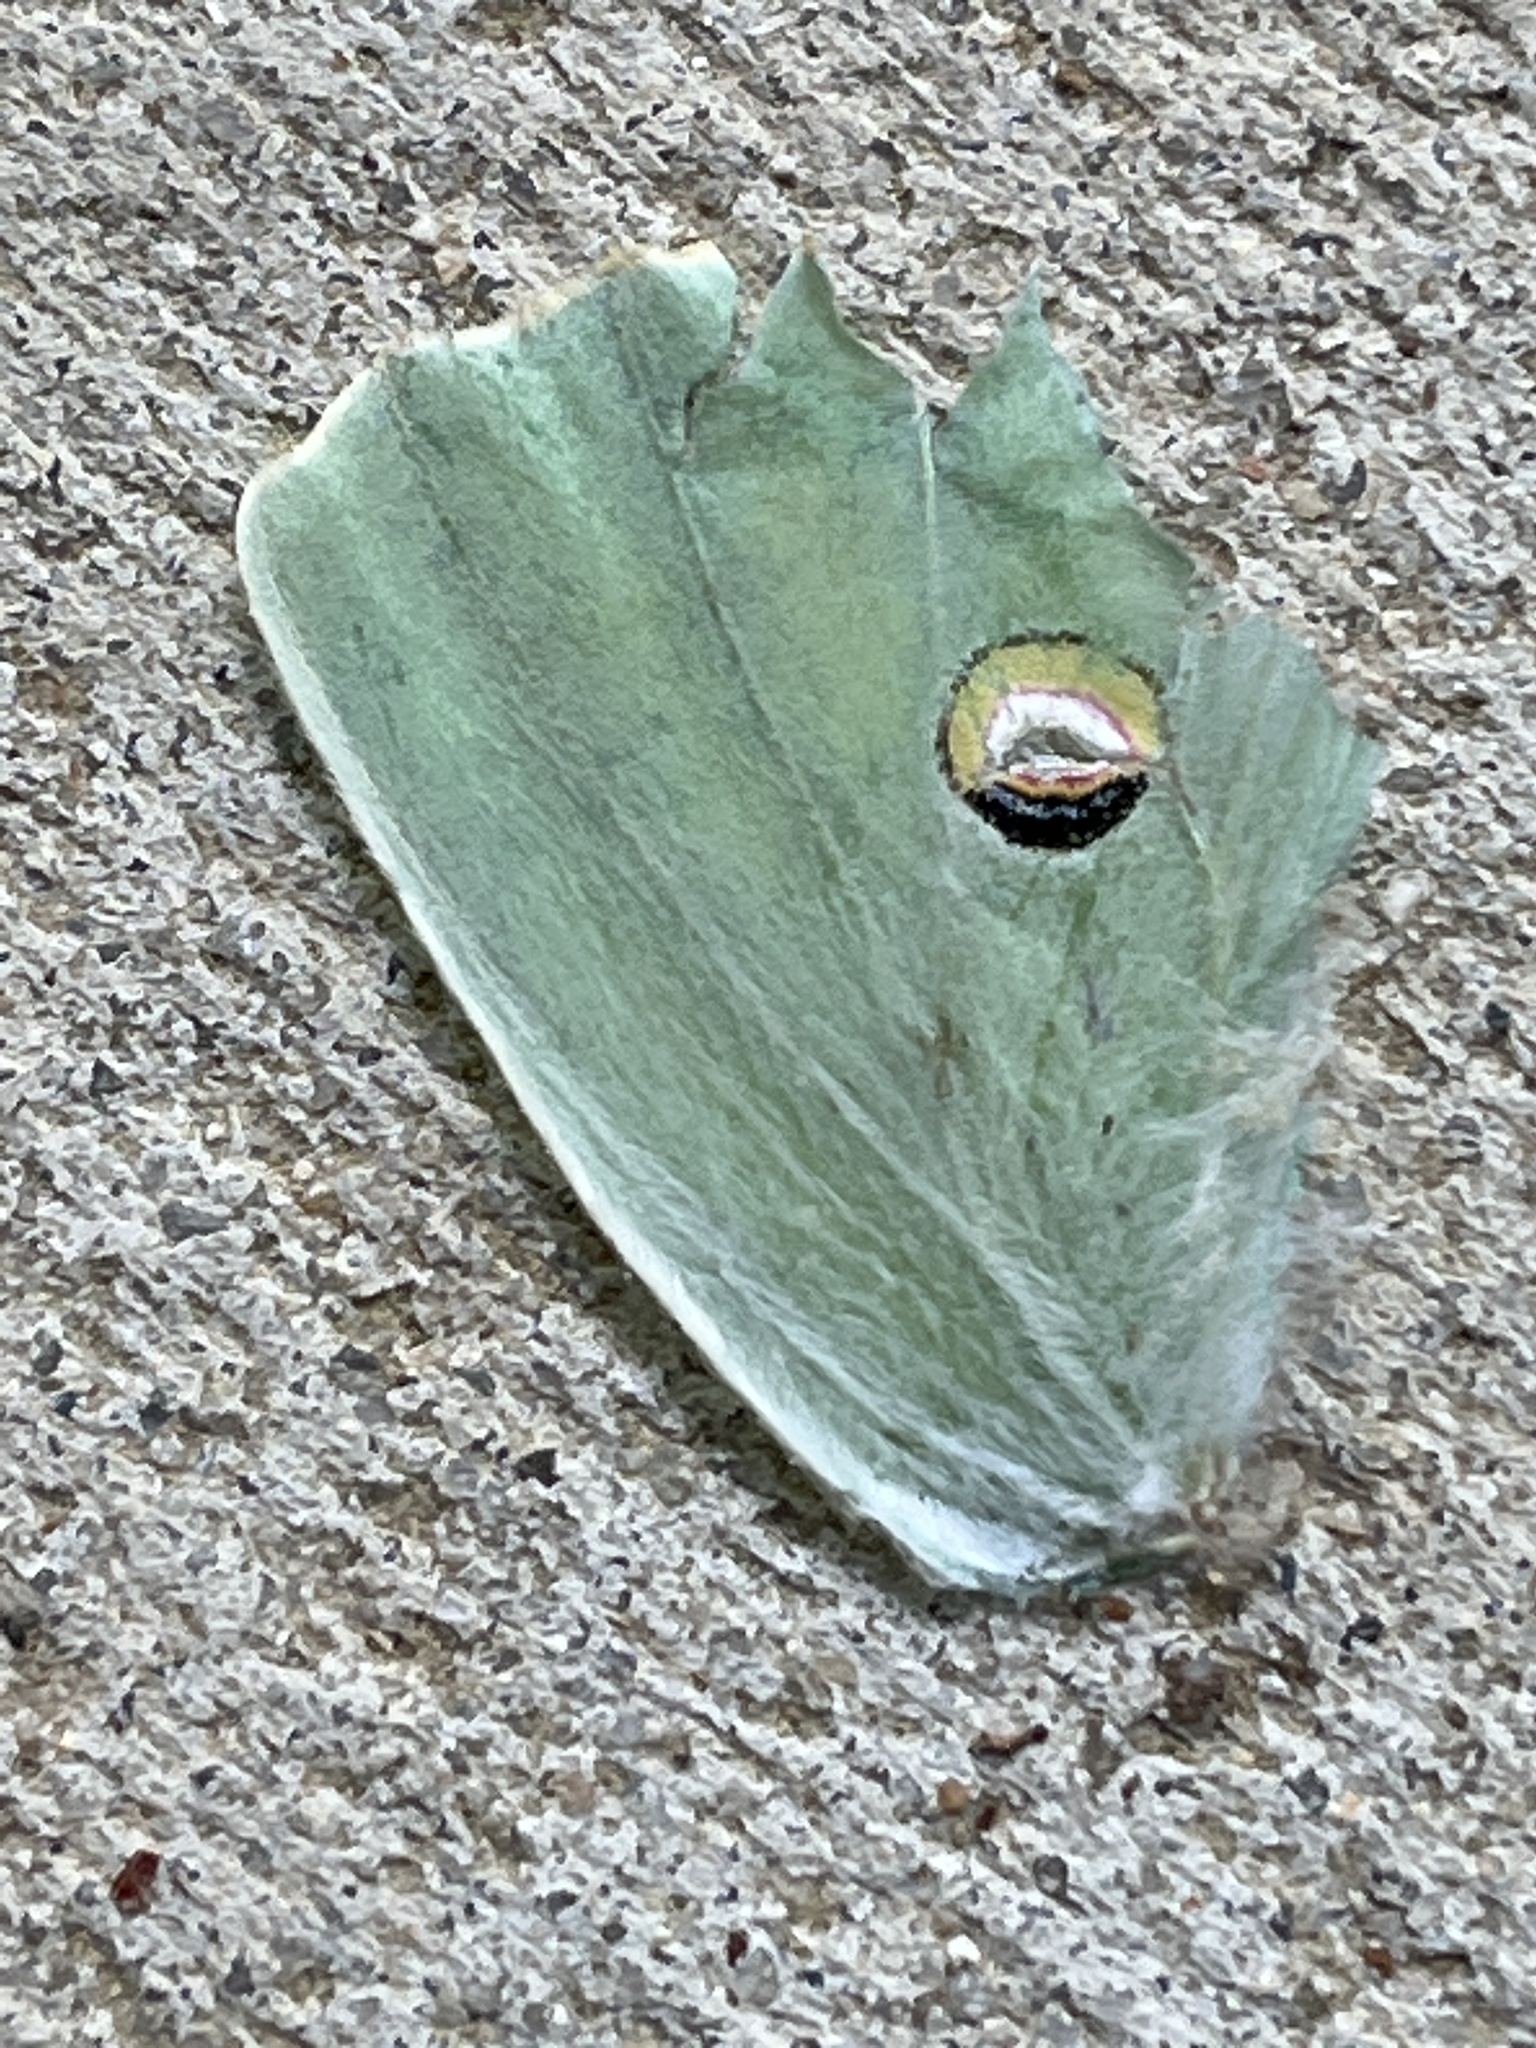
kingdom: Animalia
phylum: Arthropoda
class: Insecta
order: Lepidoptera
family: Saturniidae
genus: Actias
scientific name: Actias luna
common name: Luna moth
